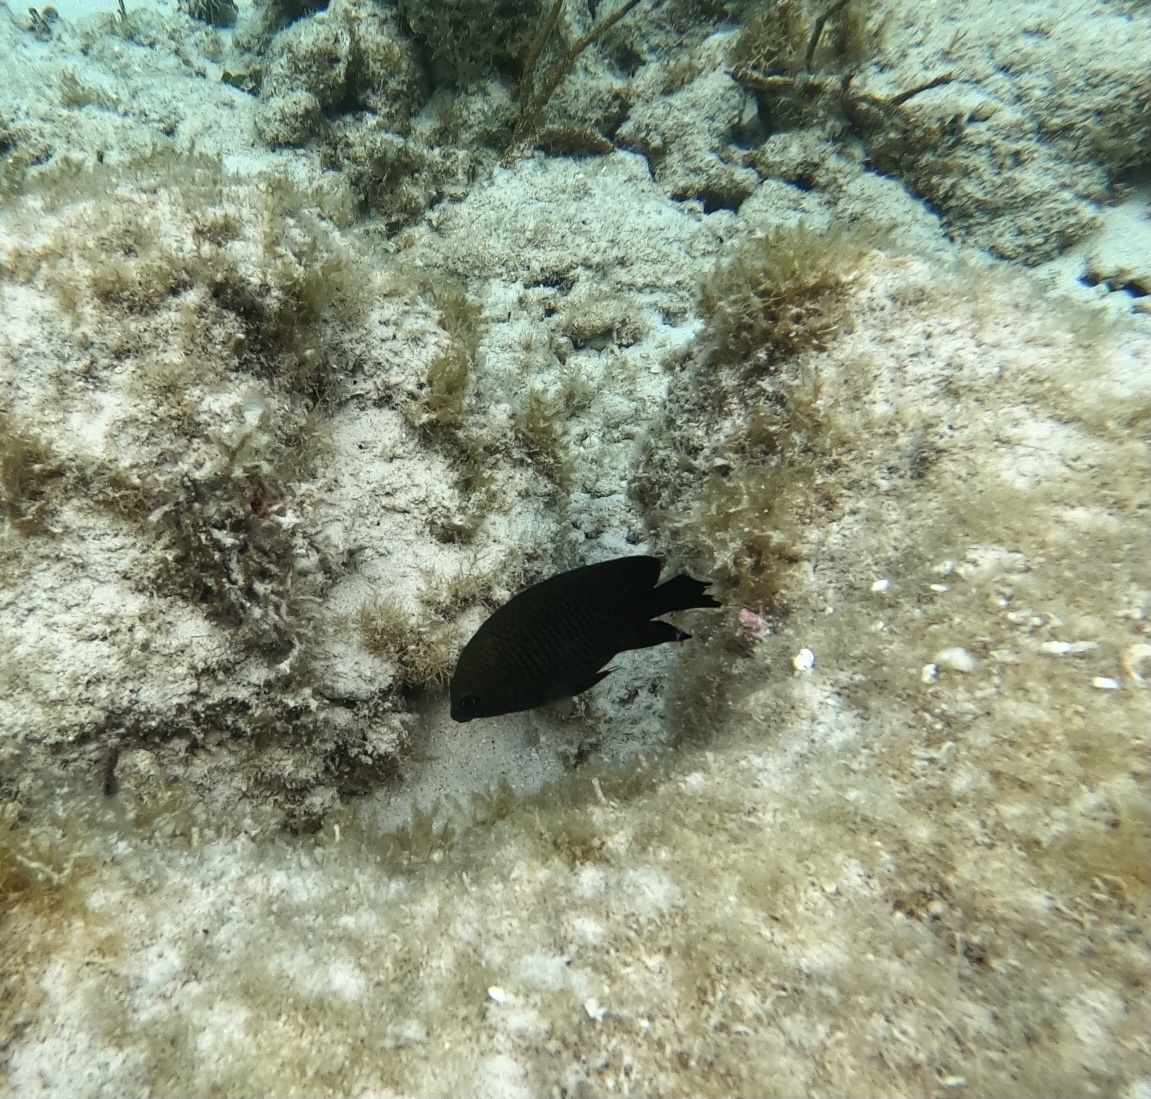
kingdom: Animalia
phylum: Chordata
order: Perciformes
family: Pomacentridae
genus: Stegastes
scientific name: Stegastes
